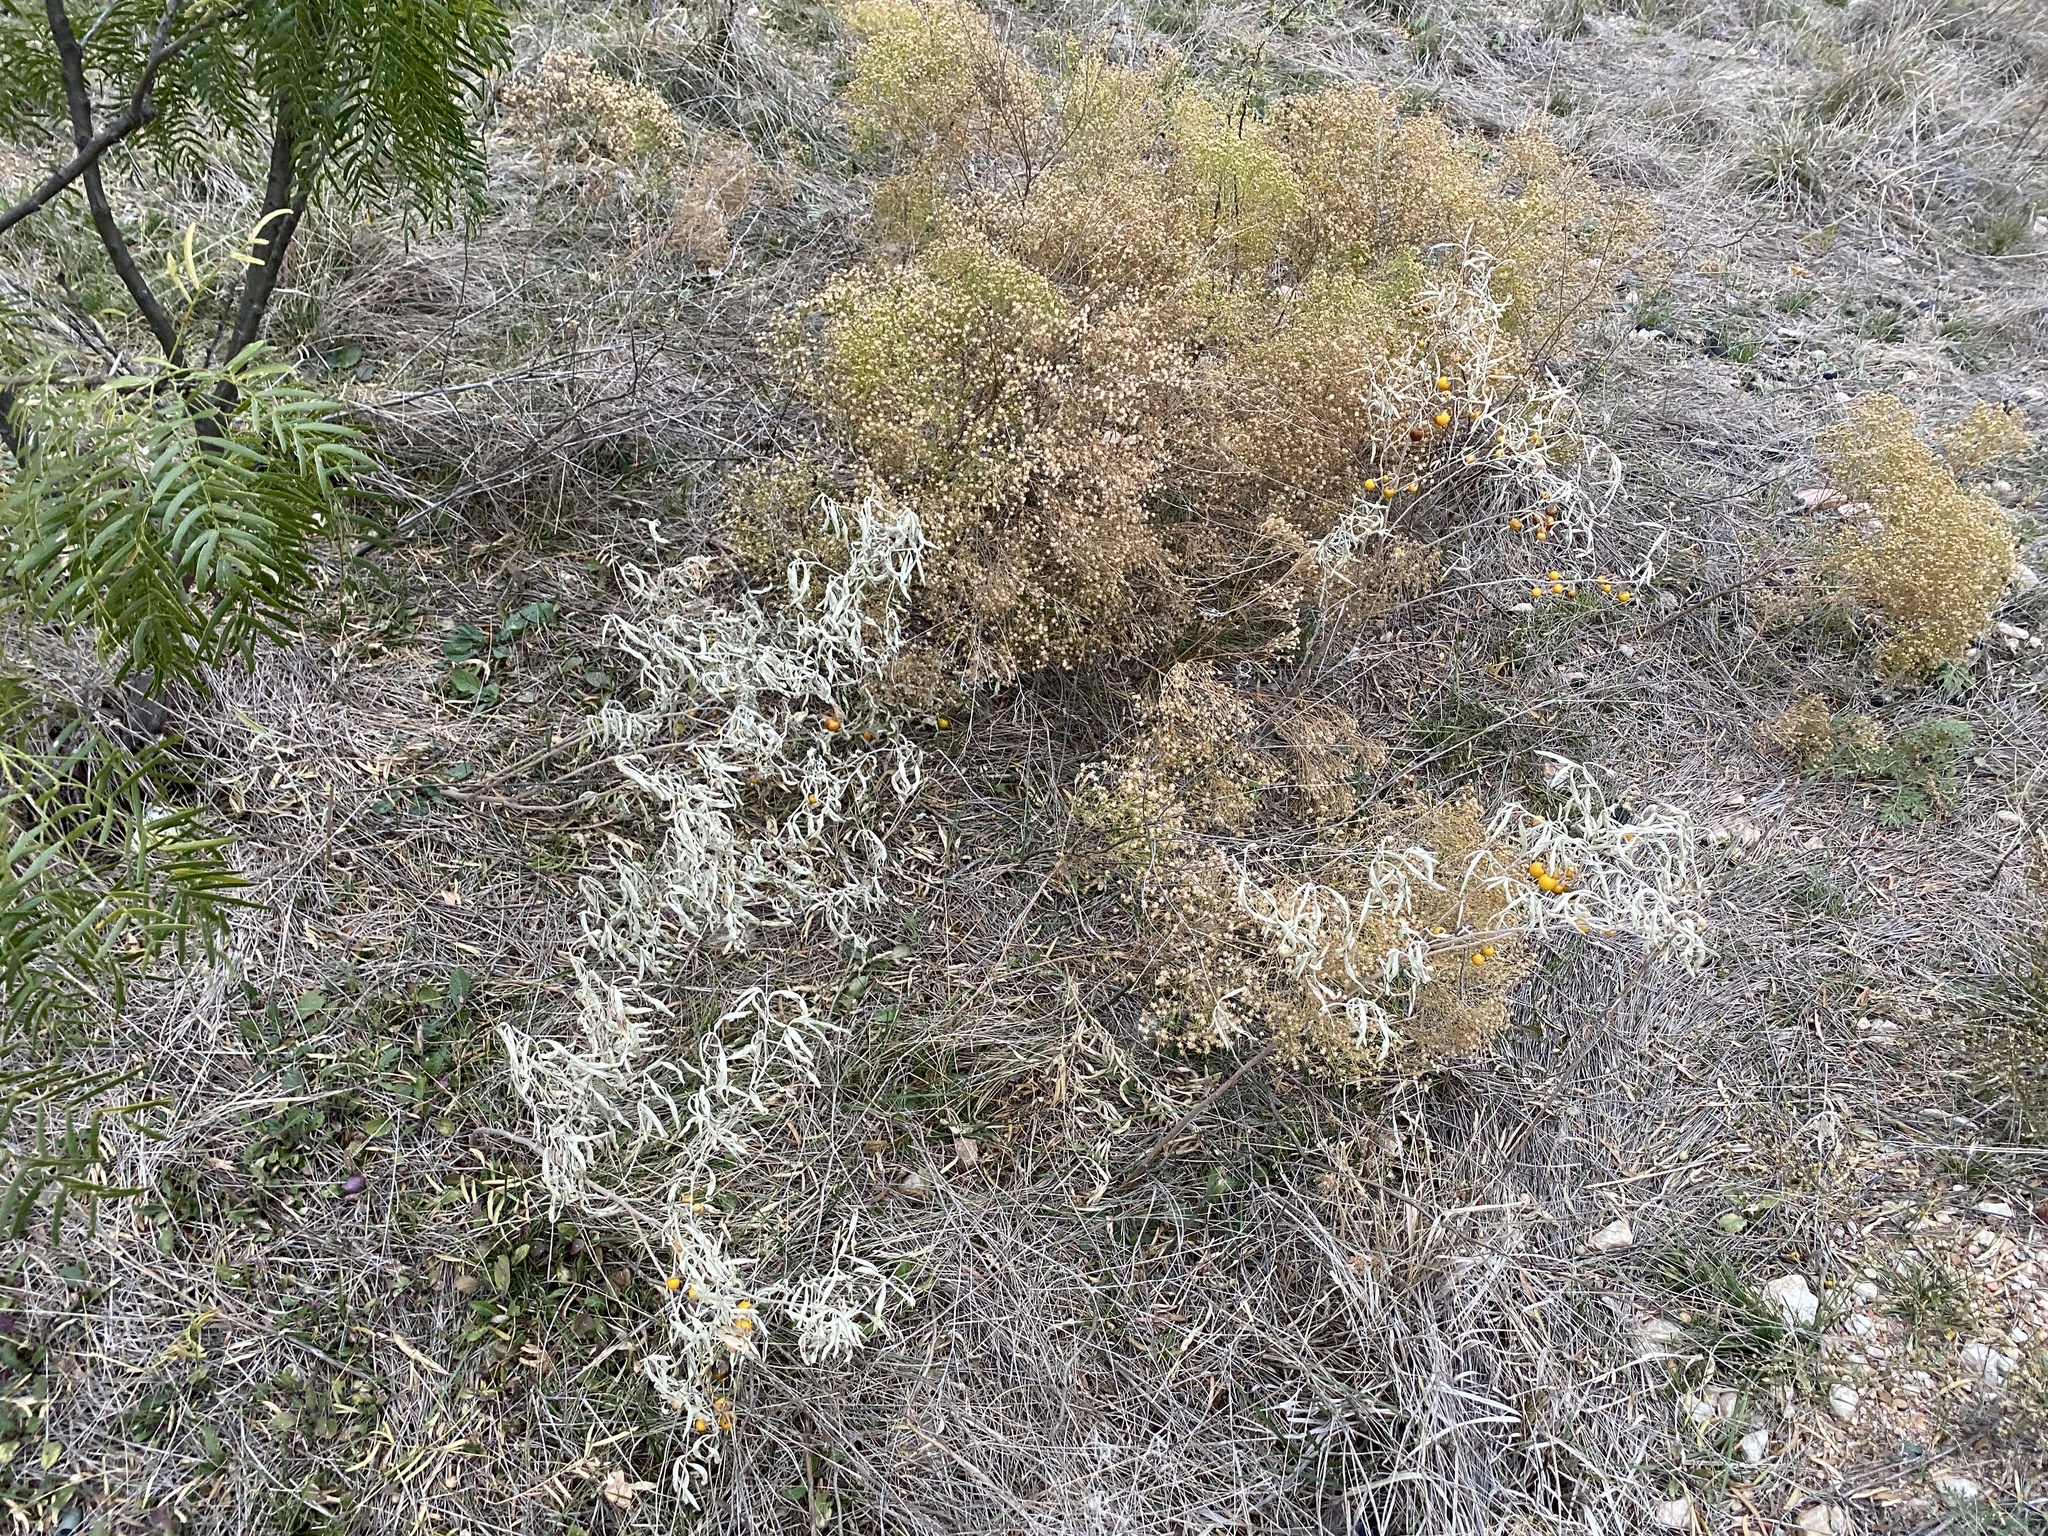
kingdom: Plantae
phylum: Tracheophyta
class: Magnoliopsida
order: Solanales
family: Solanaceae
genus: Solanum
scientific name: Solanum elaeagnifolium
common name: Silverleaf nightshade
